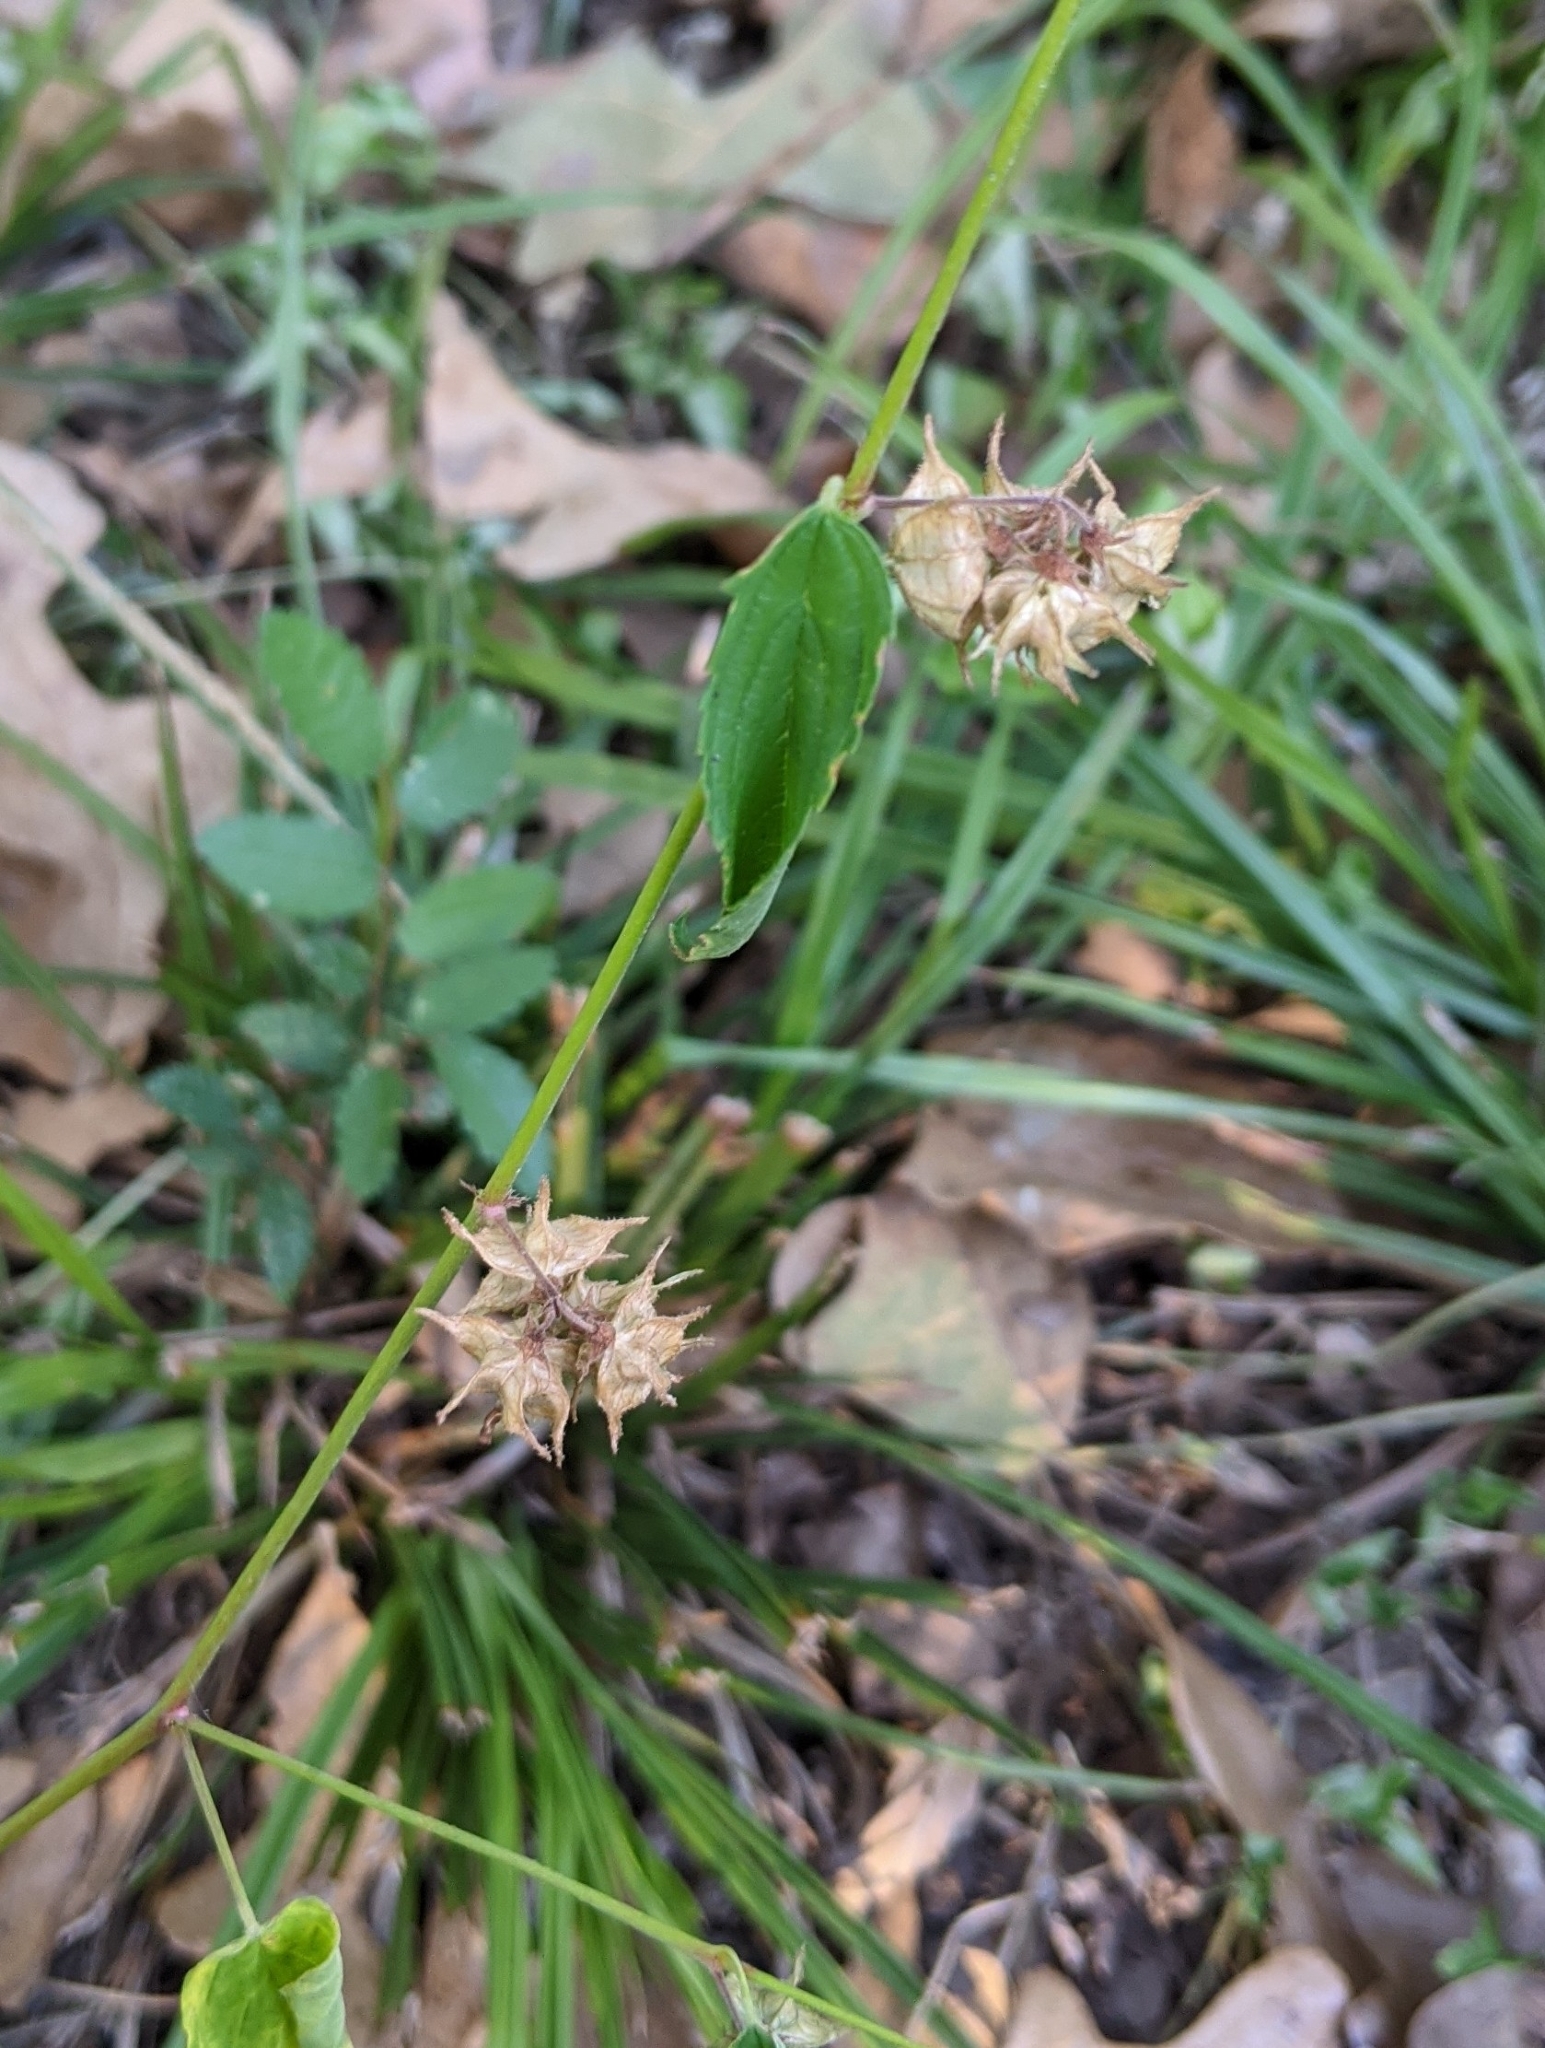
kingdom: Plantae
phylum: Tracheophyta
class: Magnoliopsida
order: Malvales
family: Malvaceae
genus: Melochia
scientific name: Melochia pyramidata
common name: Pyramidflower
